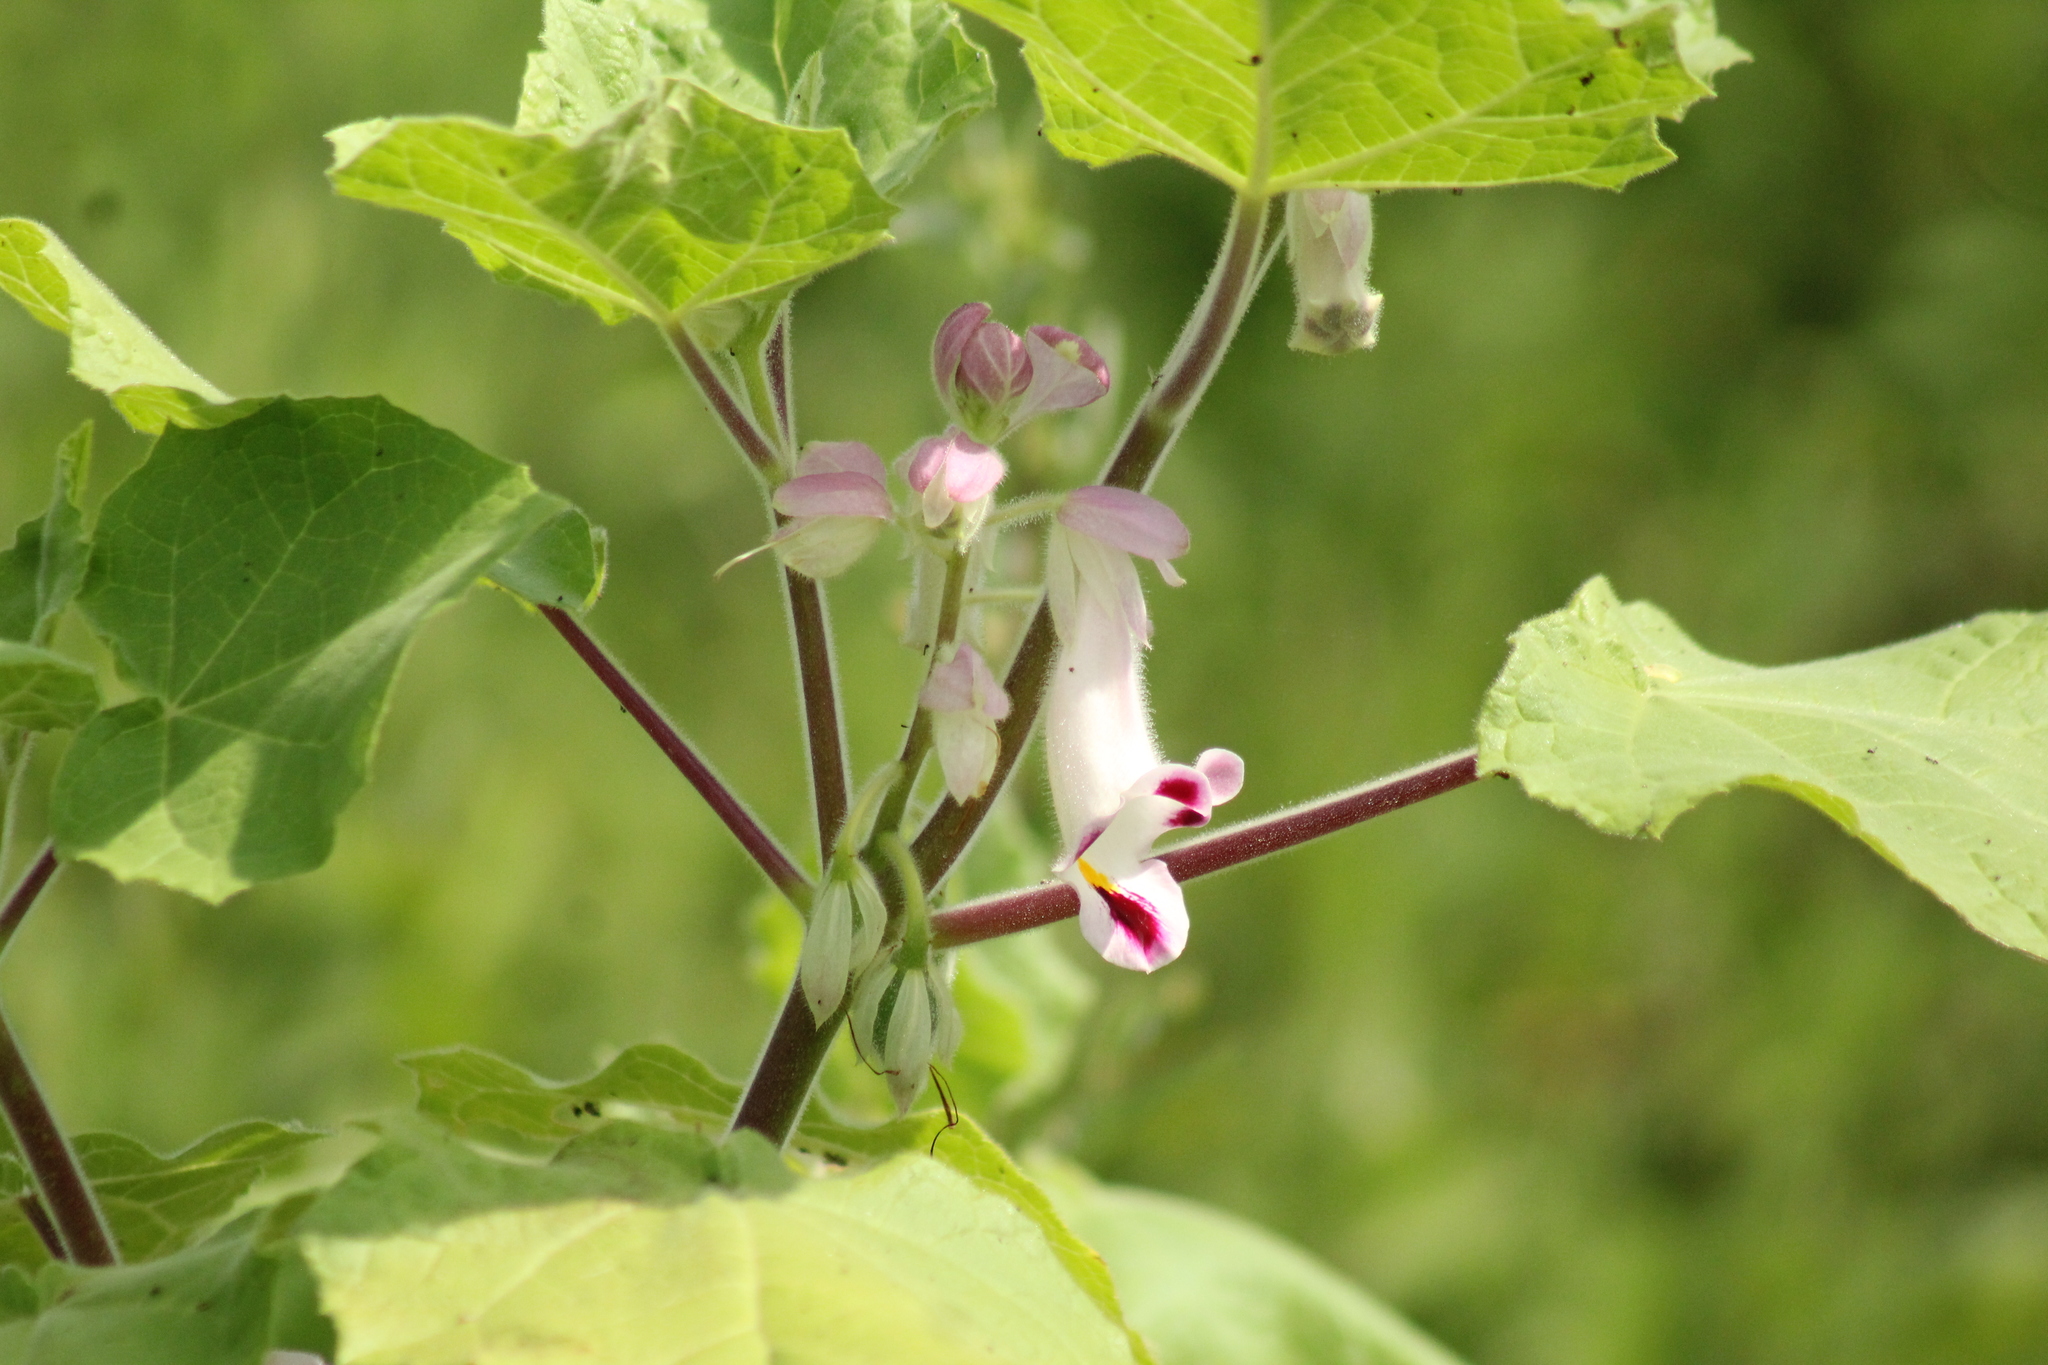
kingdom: Plantae
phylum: Tracheophyta
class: Magnoliopsida
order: Lamiales
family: Martyniaceae
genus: Martynia
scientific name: Martynia annua
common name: Tiger's-claw
